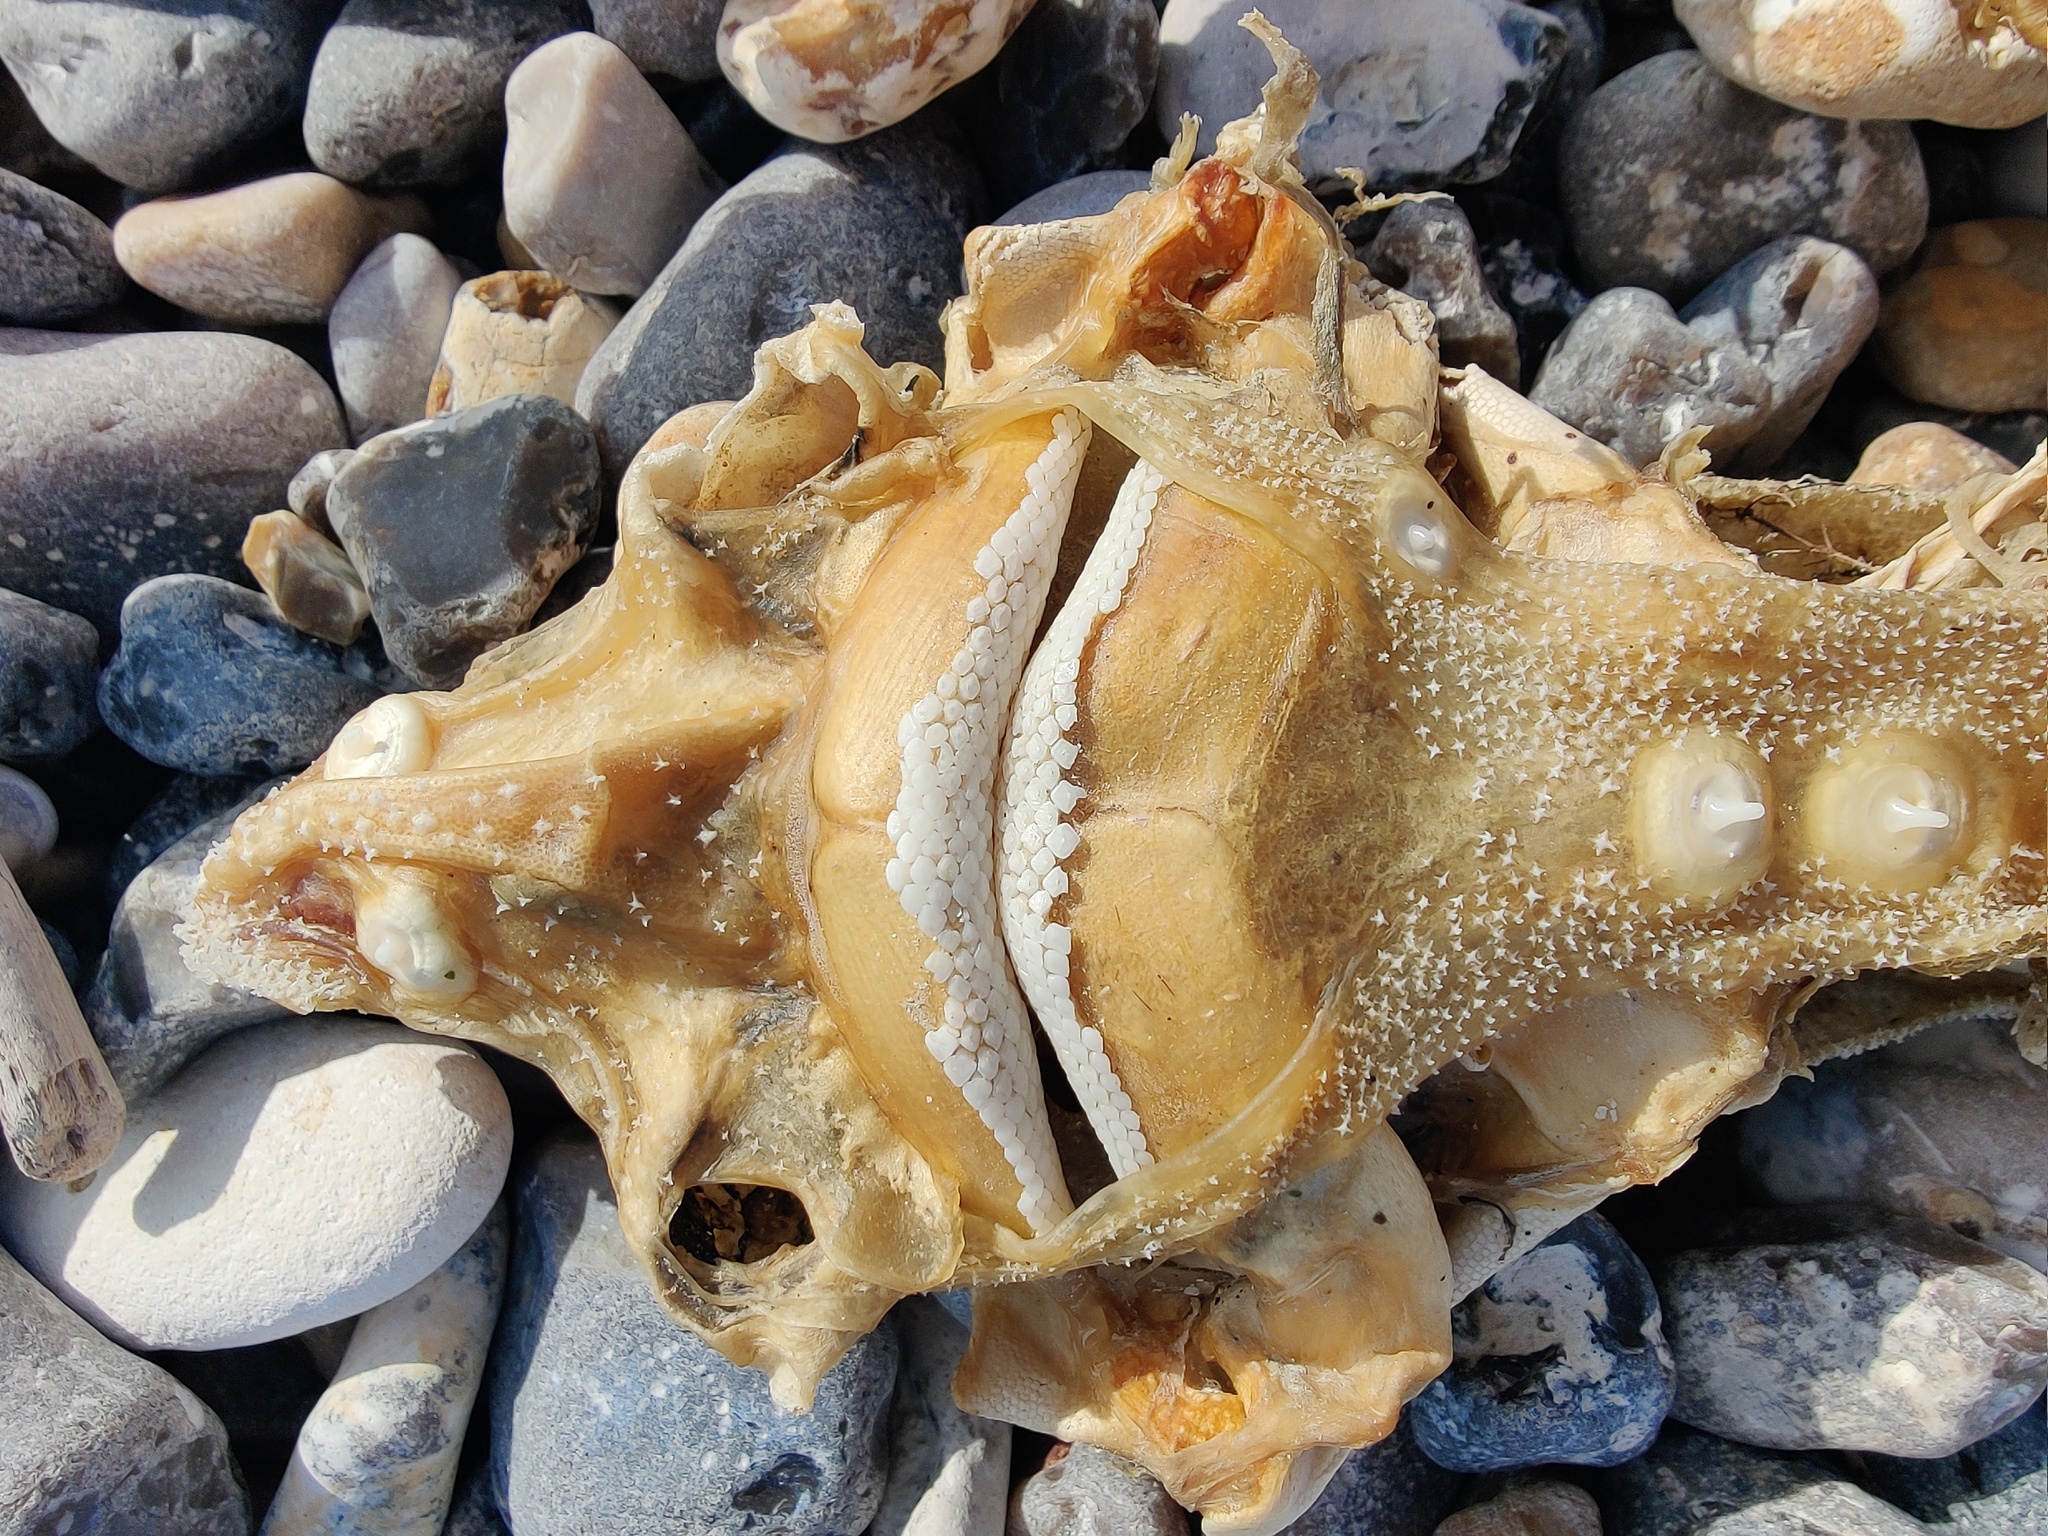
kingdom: Animalia
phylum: Chordata
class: Elasmobranchii
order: Rajiformes
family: Rajidae
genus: Raja
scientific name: Raja clavata
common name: Thornback ray
